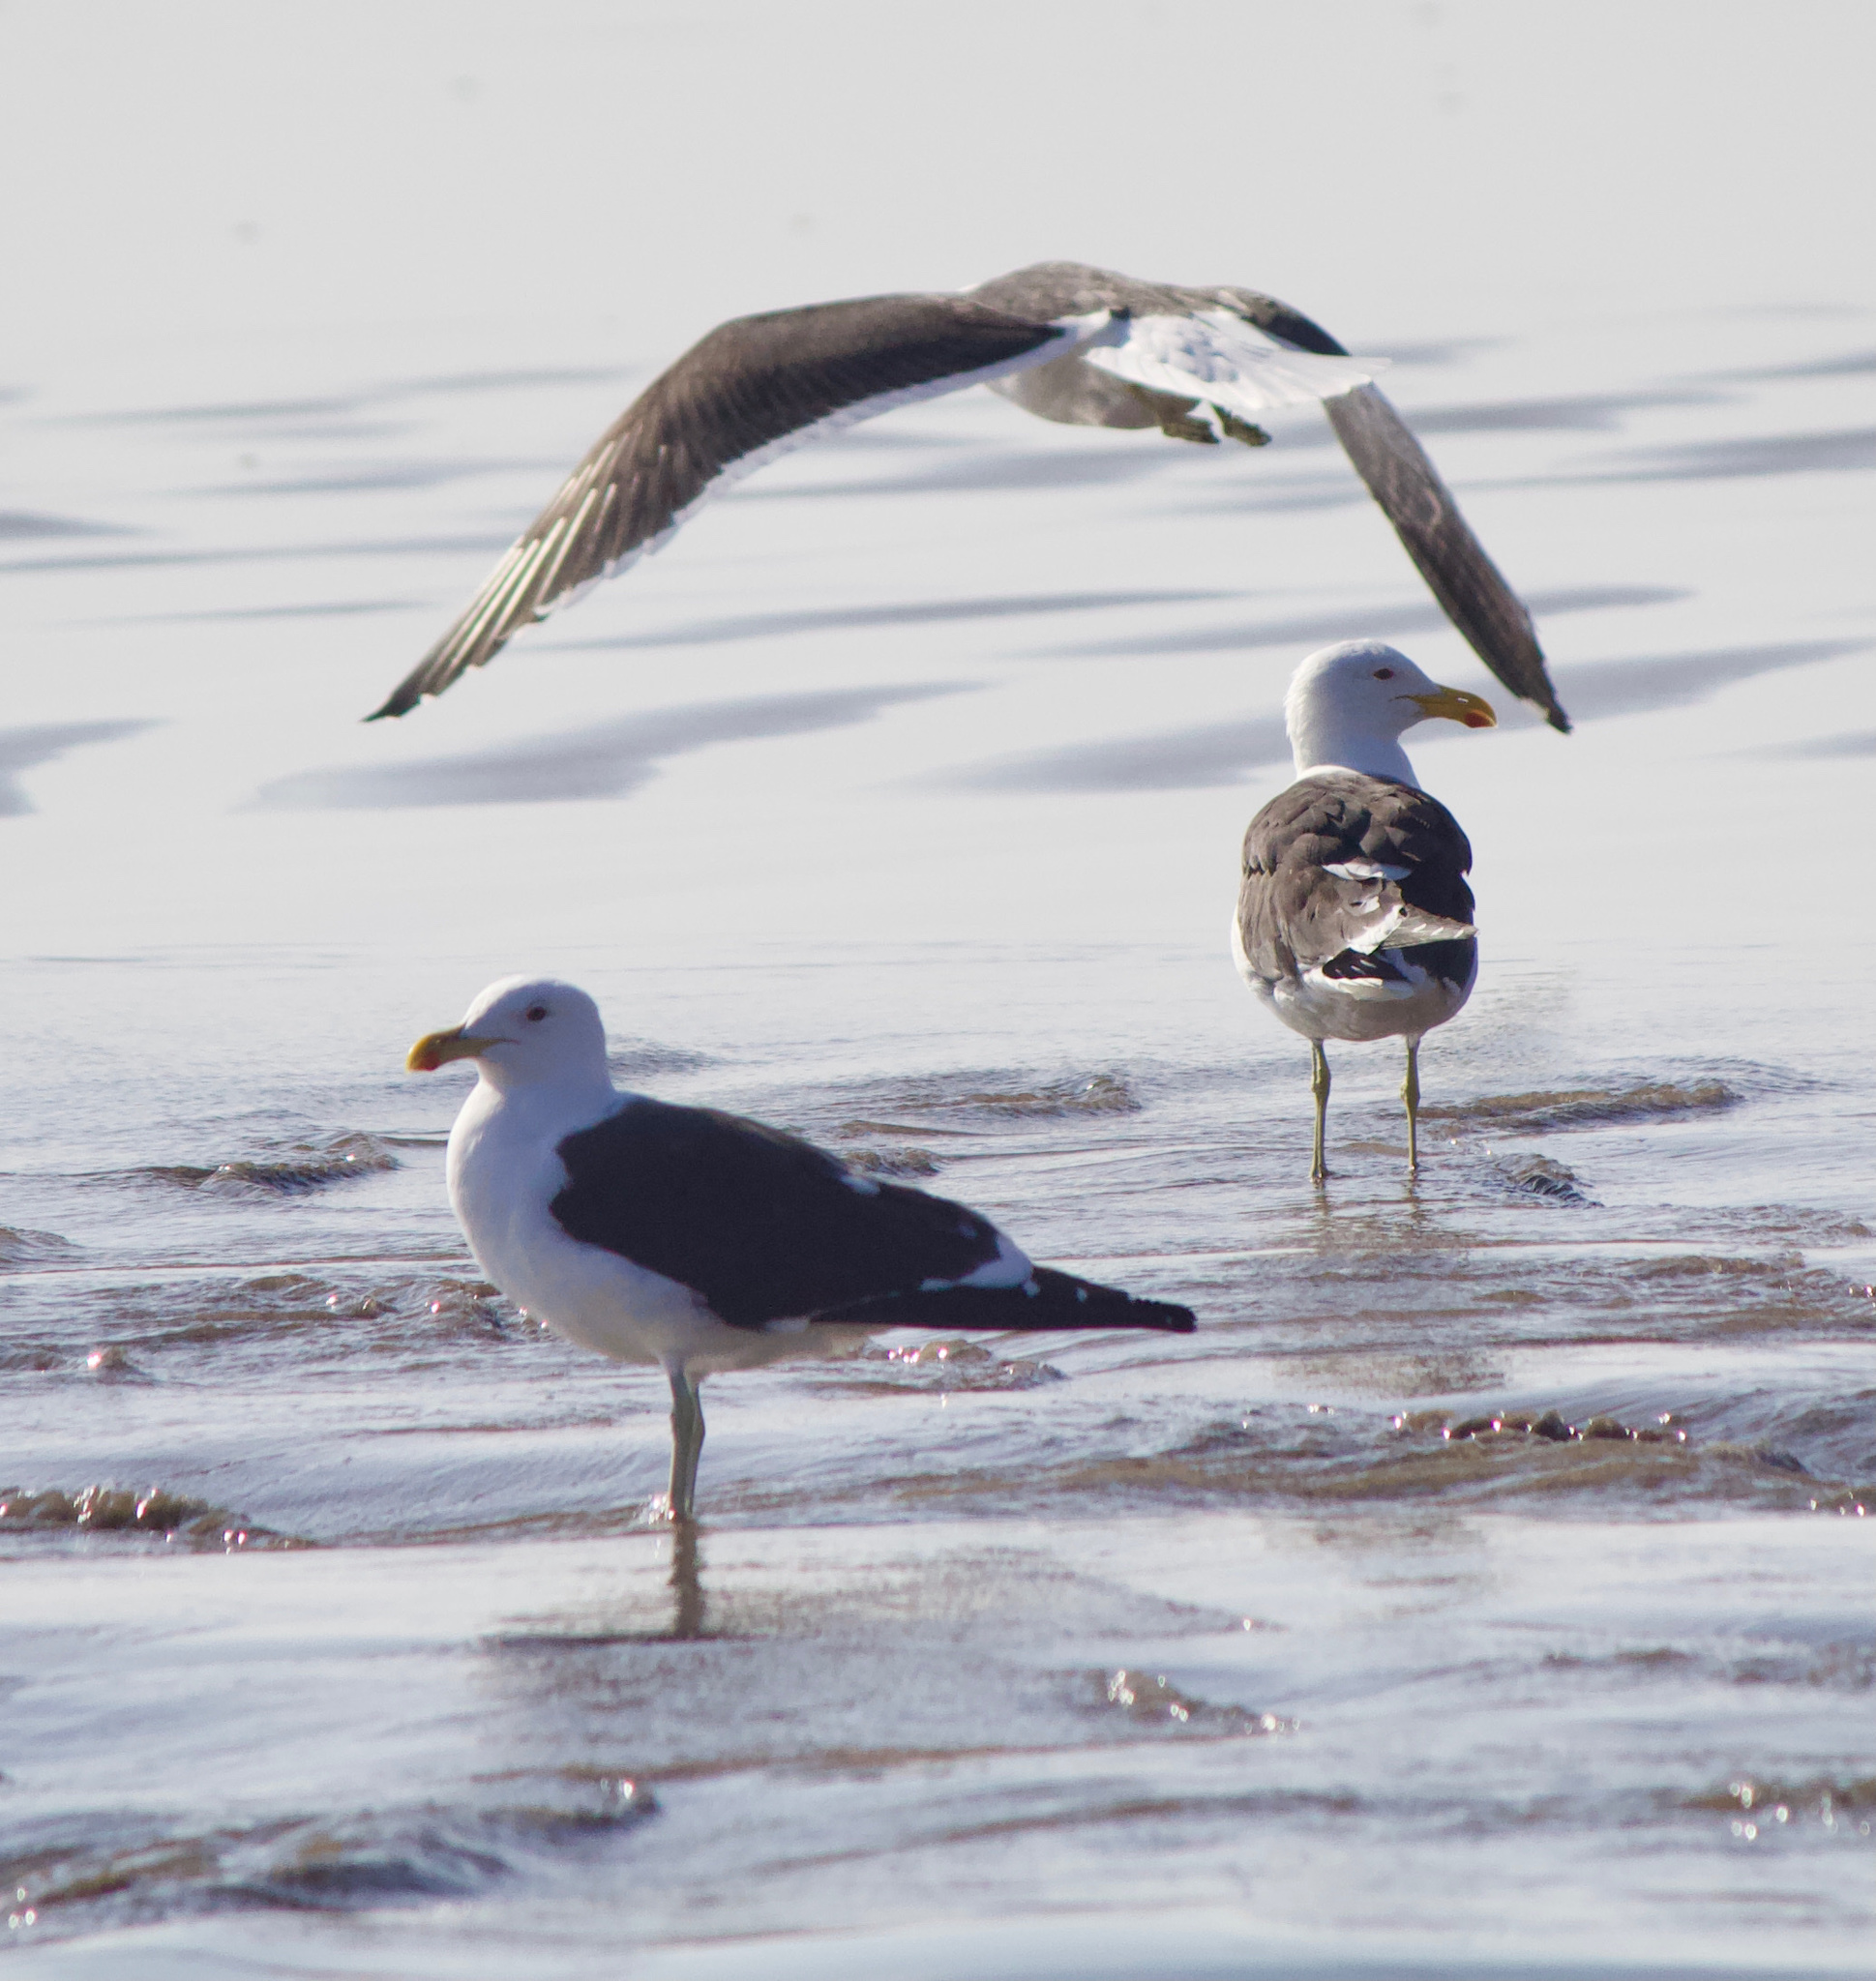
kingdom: Animalia
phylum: Chordata
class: Aves
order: Charadriiformes
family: Laridae
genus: Larus
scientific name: Larus dominicanus
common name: Kelp gull
